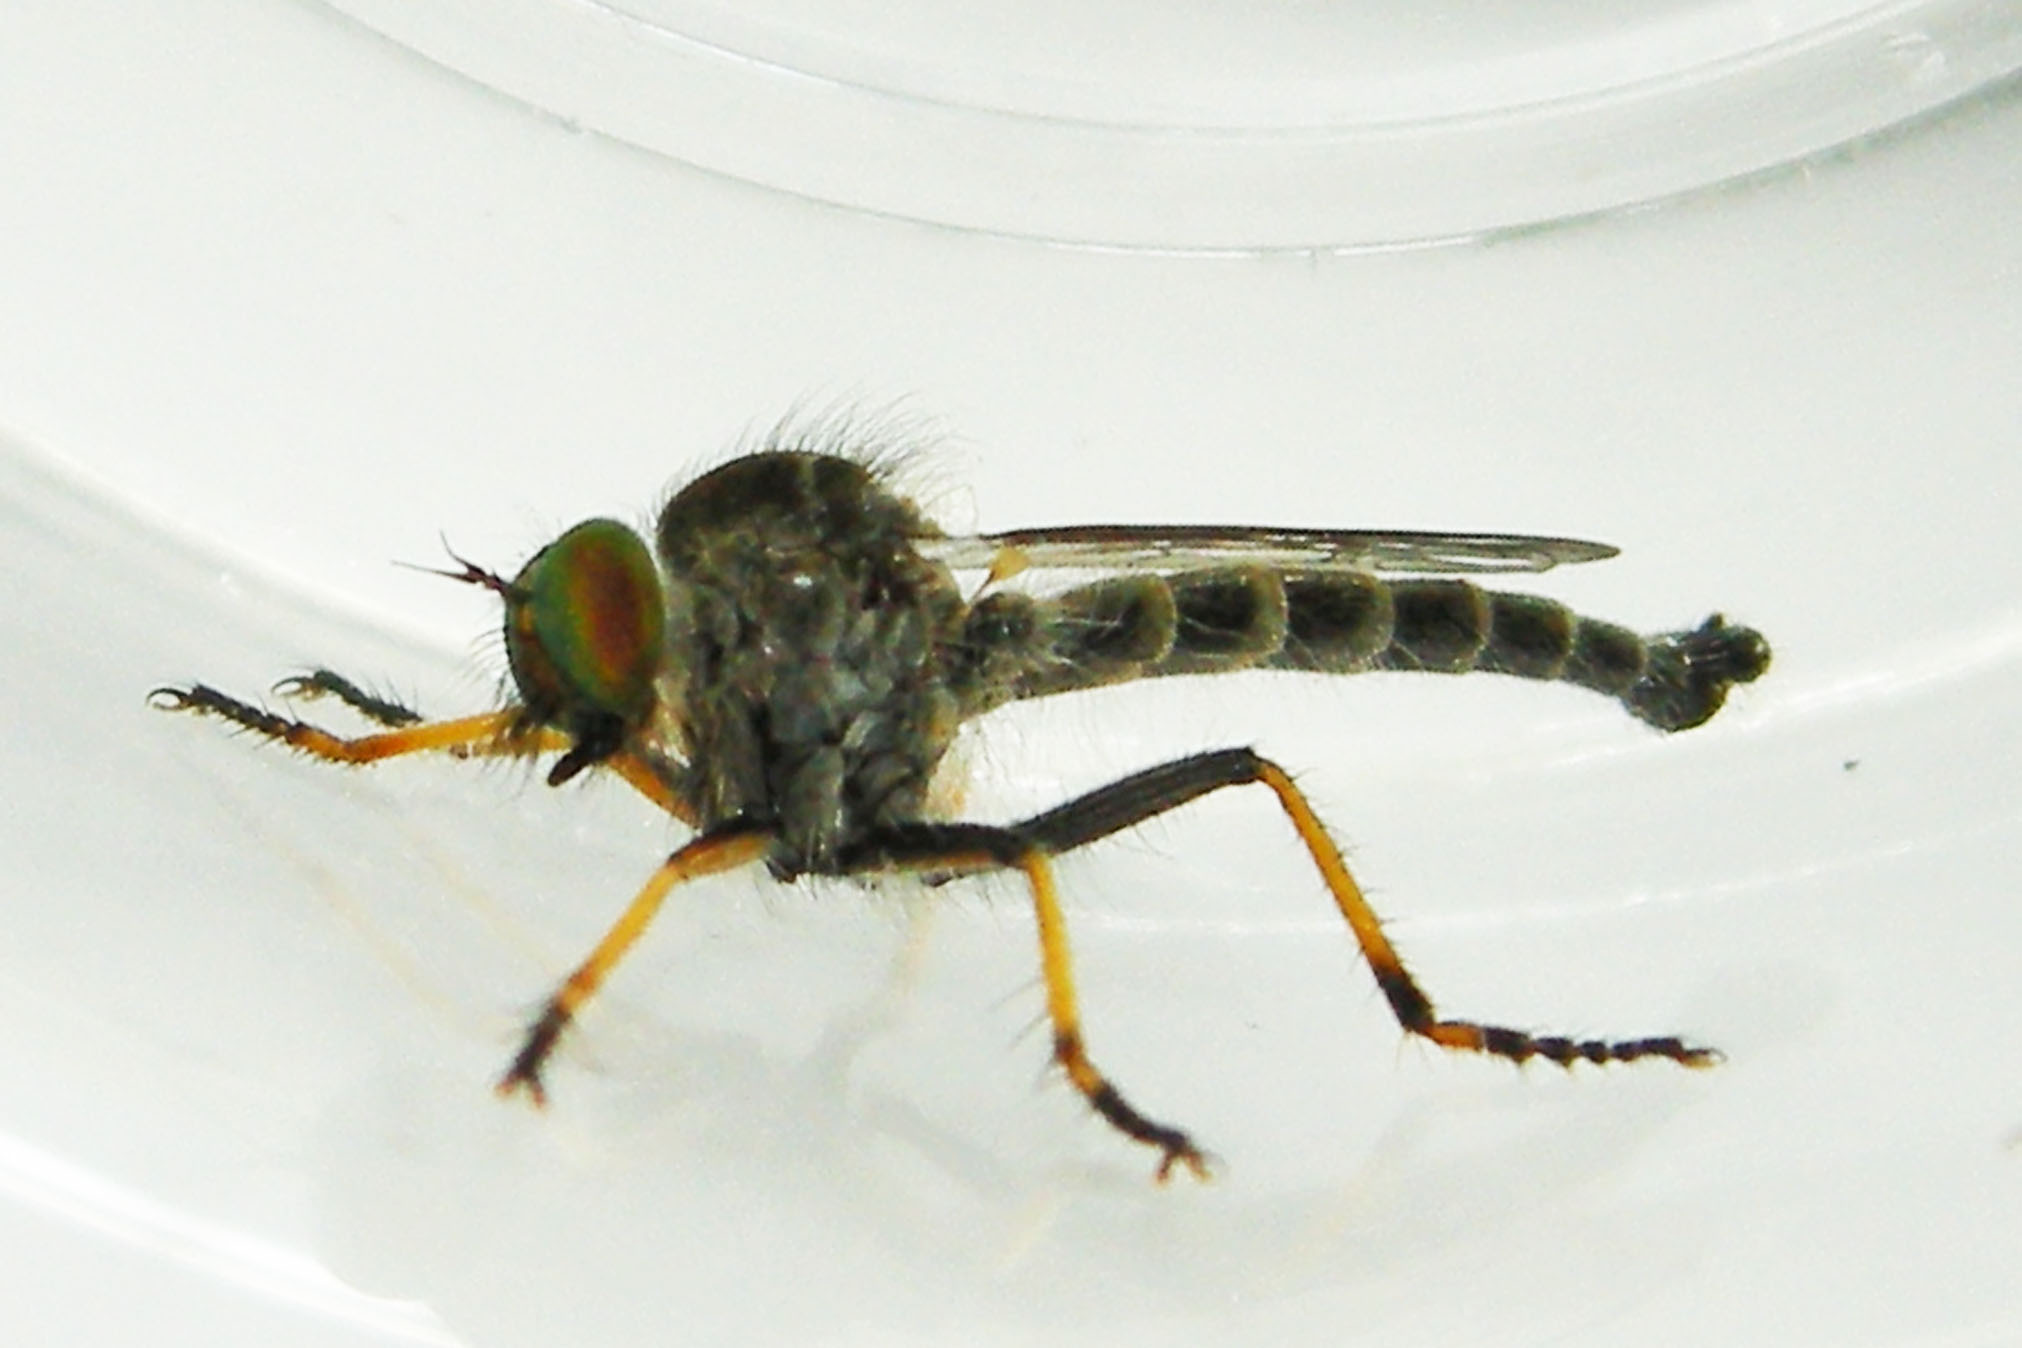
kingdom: Animalia
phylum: Arthropoda
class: Insecta
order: Diptera
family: Asilidae
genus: Asilus
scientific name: Asilus flavofemoratus
